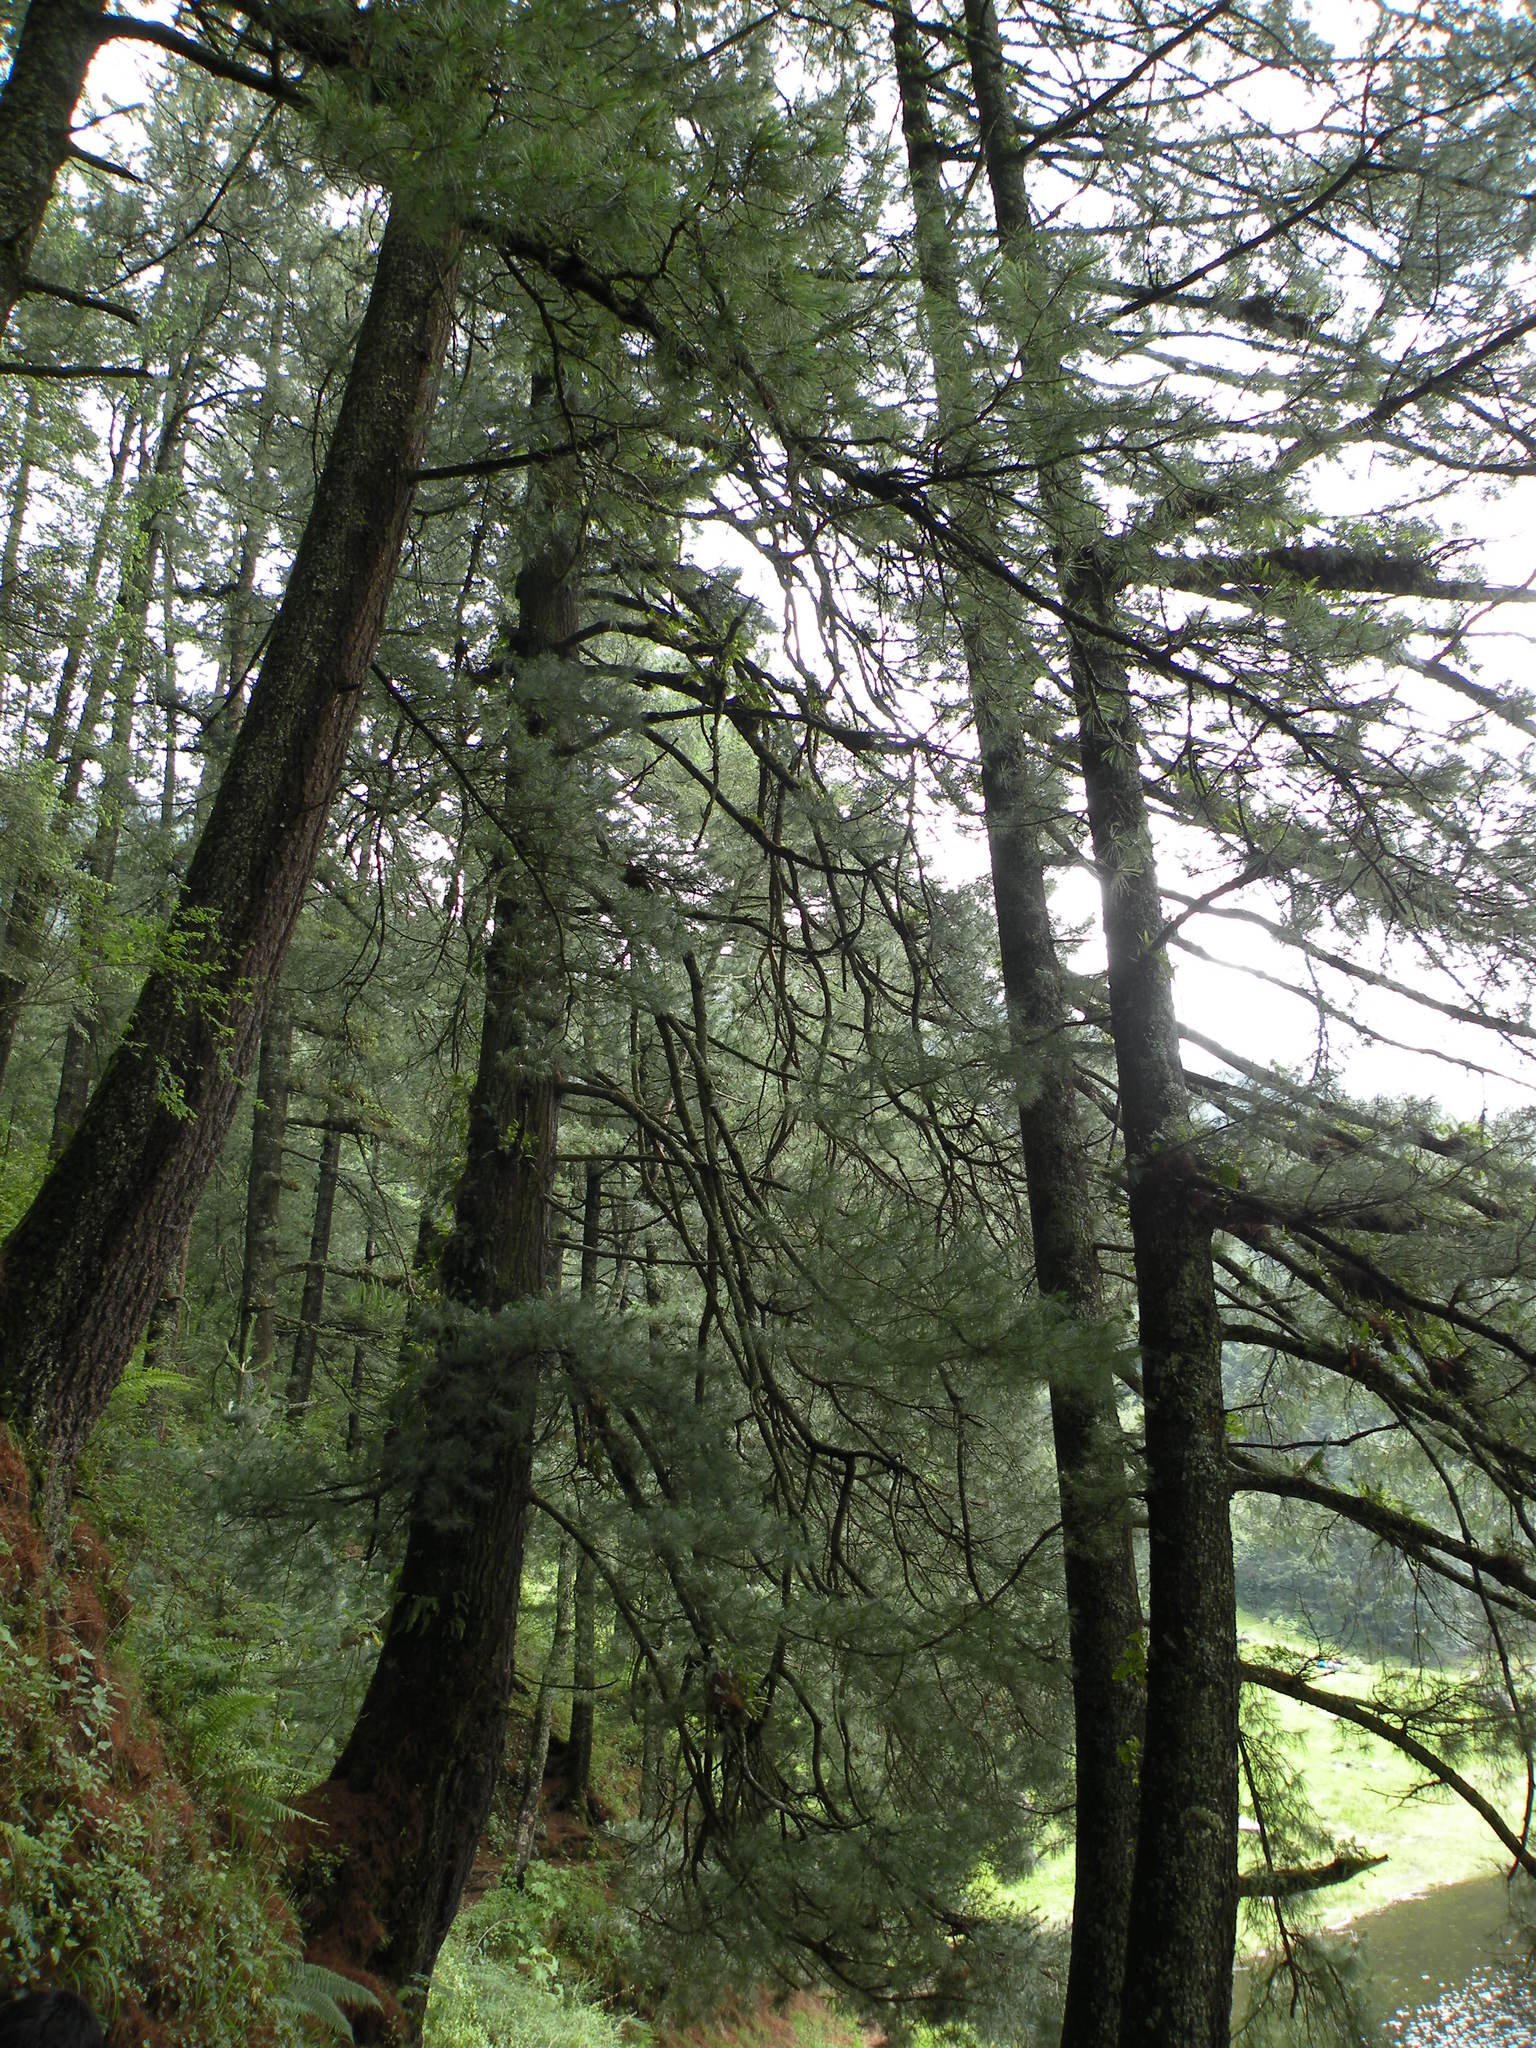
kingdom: Plantae
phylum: Tracheophyta
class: Pinopsida
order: Pinales
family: Pinaceae
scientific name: Pinaceae
